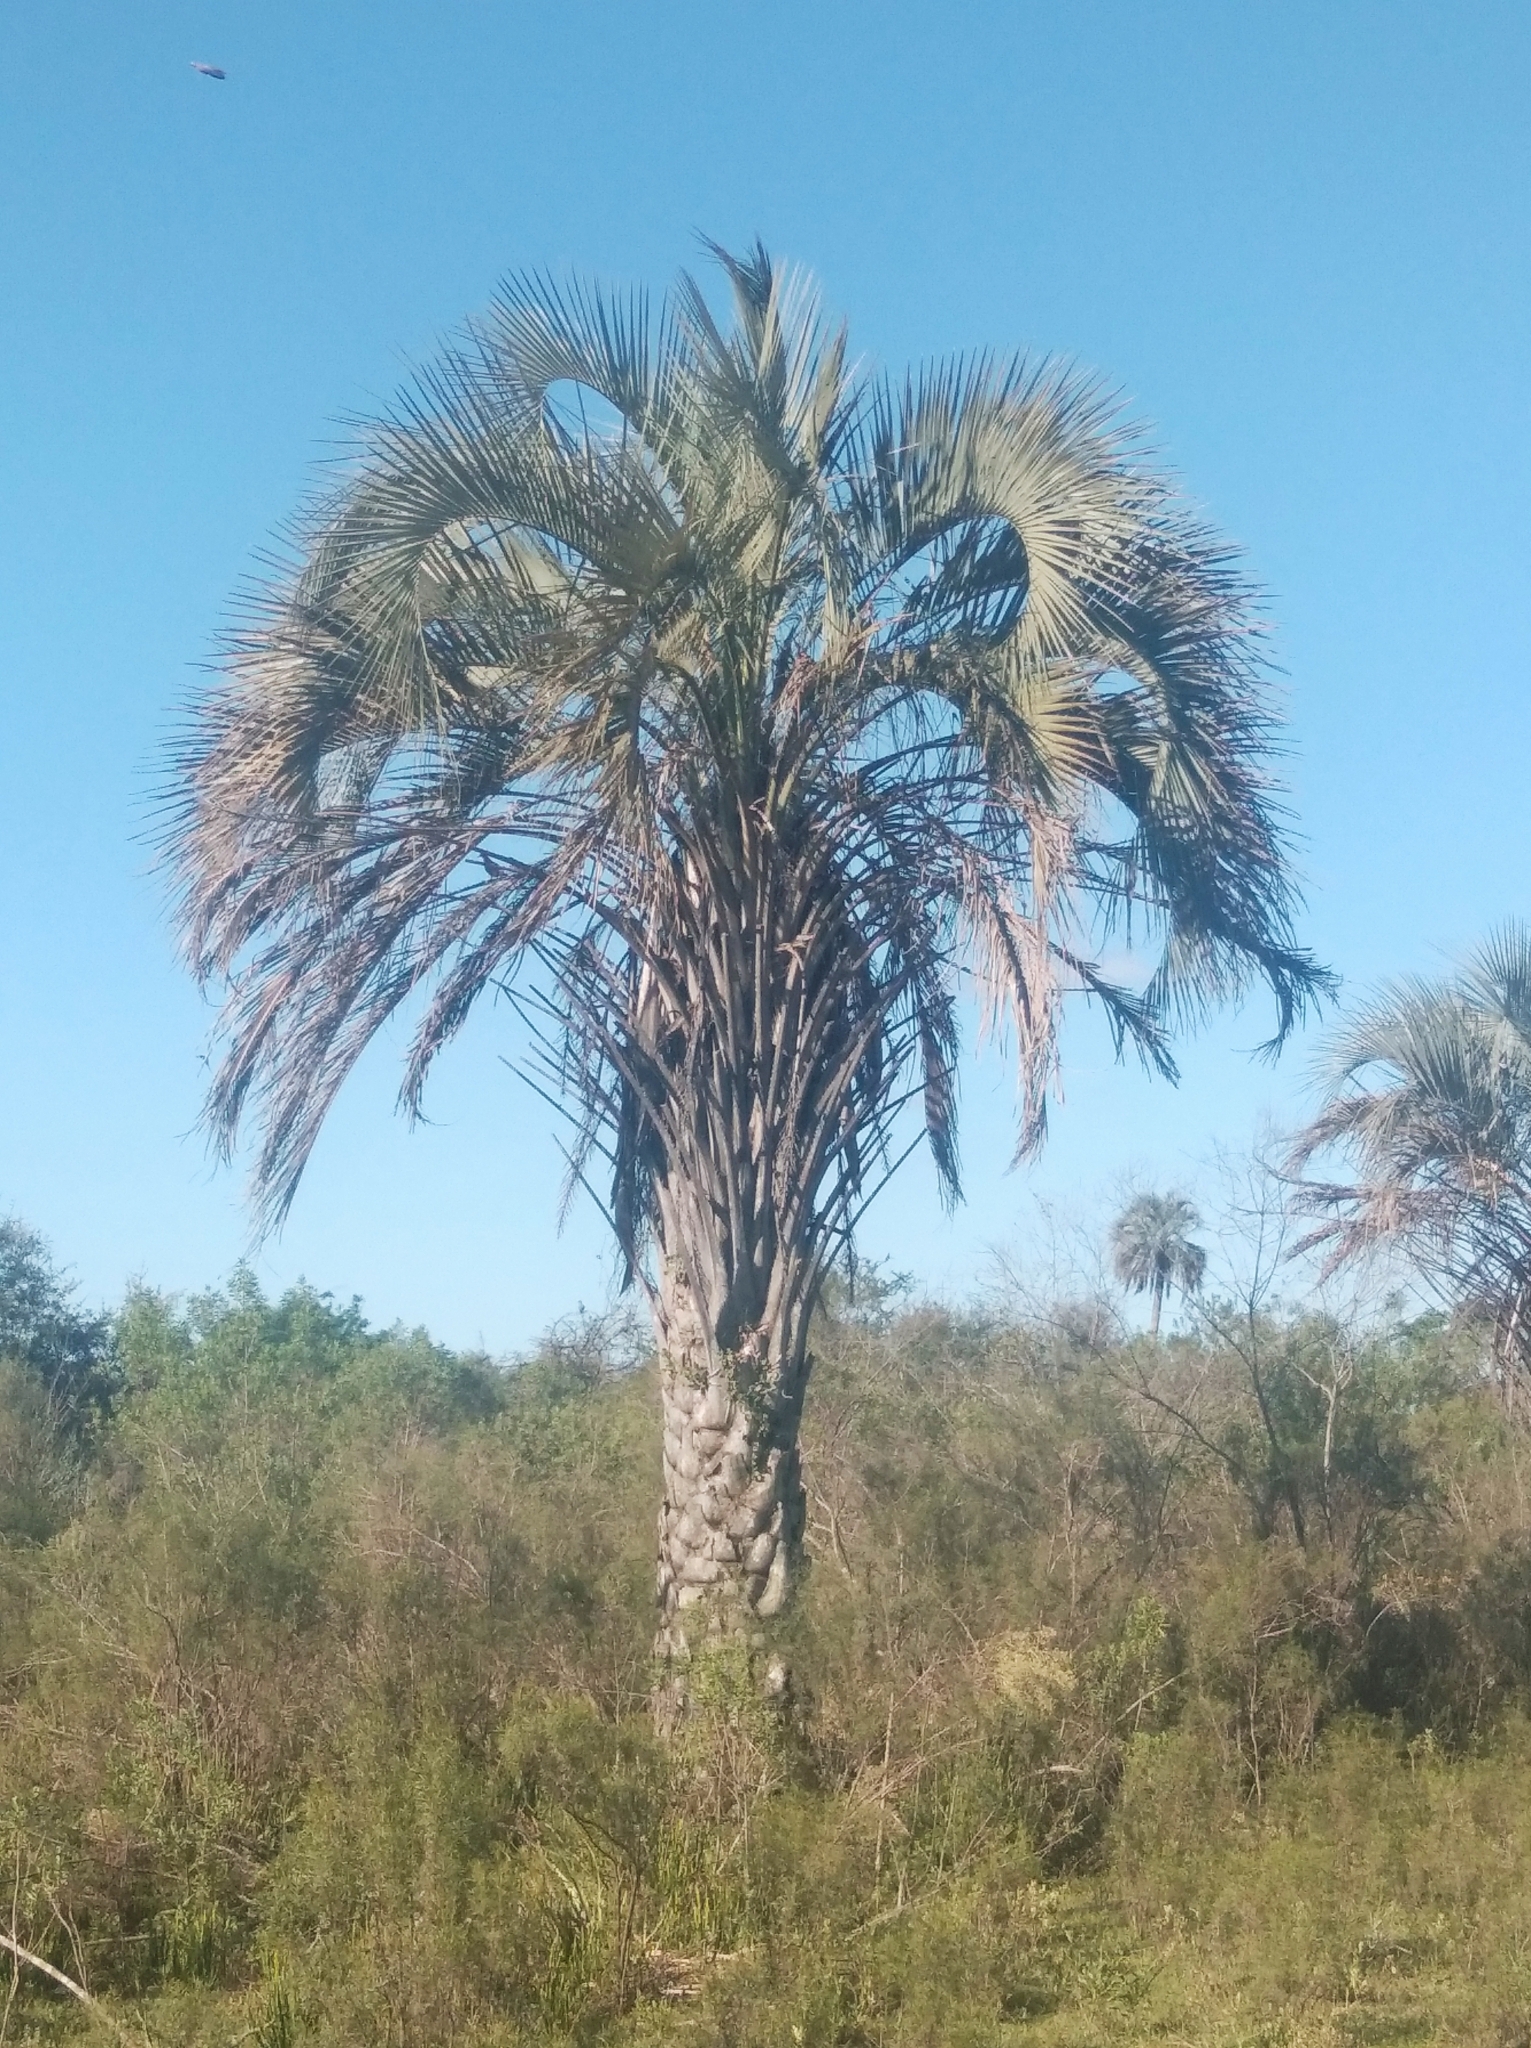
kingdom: Plantae
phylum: Tracheophyta
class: Liliopsida
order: Arecales
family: Arecaceae
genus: Butia
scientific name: Butia yatay
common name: Yatay palm
